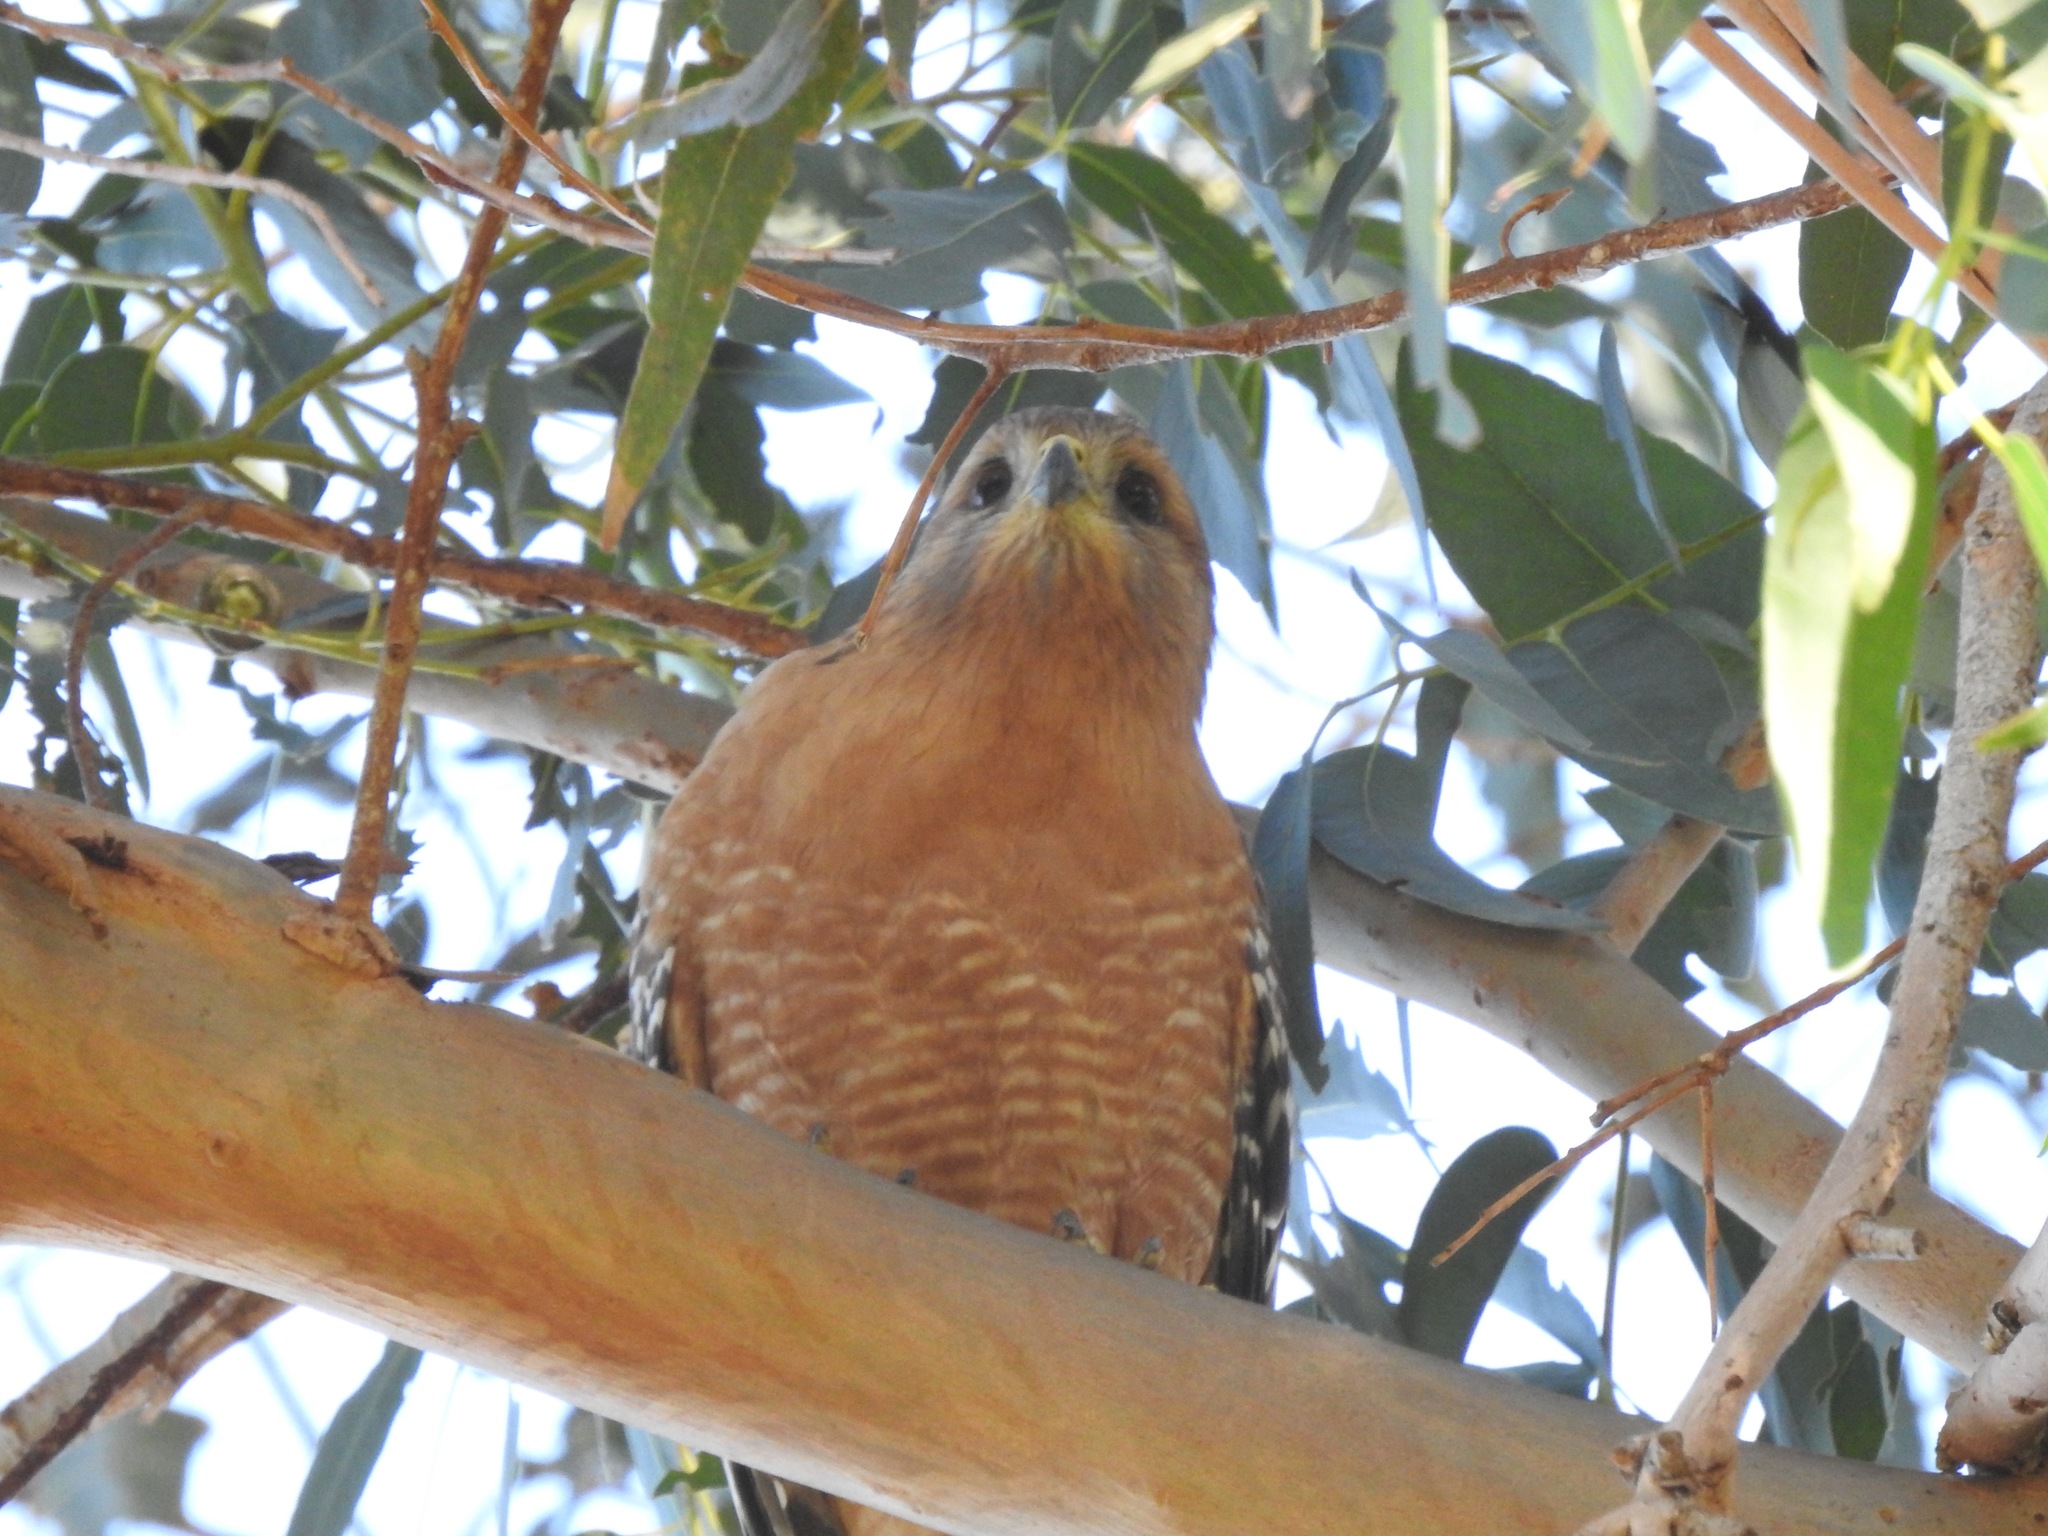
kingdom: Animalia
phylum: Chordata
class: Aves
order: Accipitriformes
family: Accipitridae
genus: Buteo
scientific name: Buteo lineatus
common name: Red-shouldered hawk
